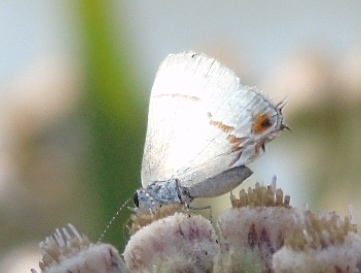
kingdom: Animalia
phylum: Arthropoda
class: Insecta
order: Lepidoptera
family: Lycaenidae
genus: Electrostrymon
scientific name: Electrostrymon endymion
